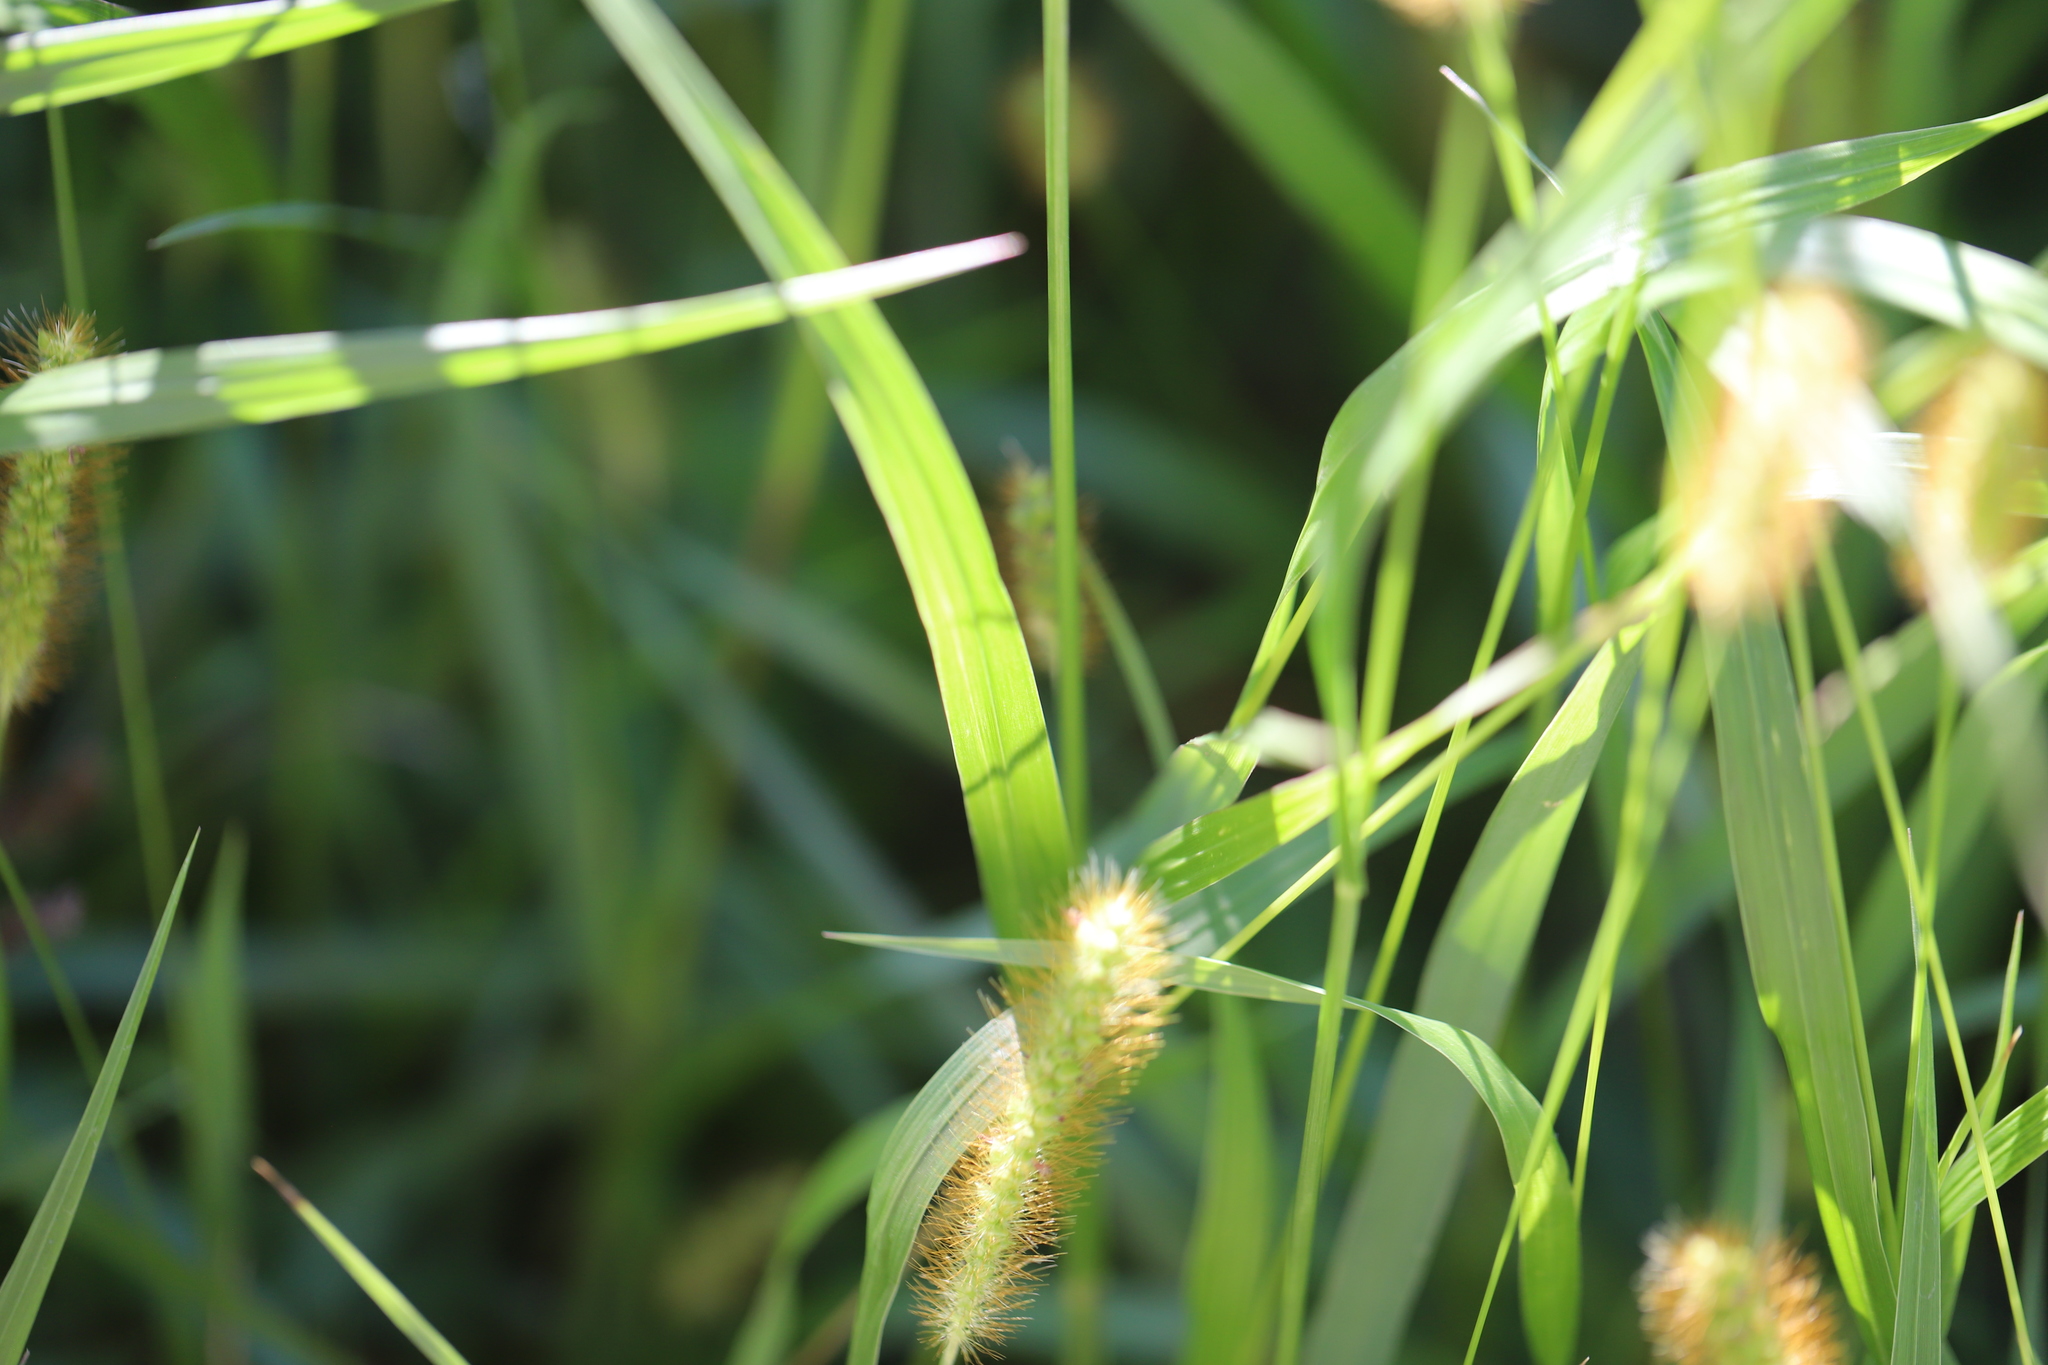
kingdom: Plantae
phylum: Tracheophyta
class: Liliopsida
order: Poales
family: Poaceae
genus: Setaria
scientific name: Setaria pumila
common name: Yellow bristle-grass
